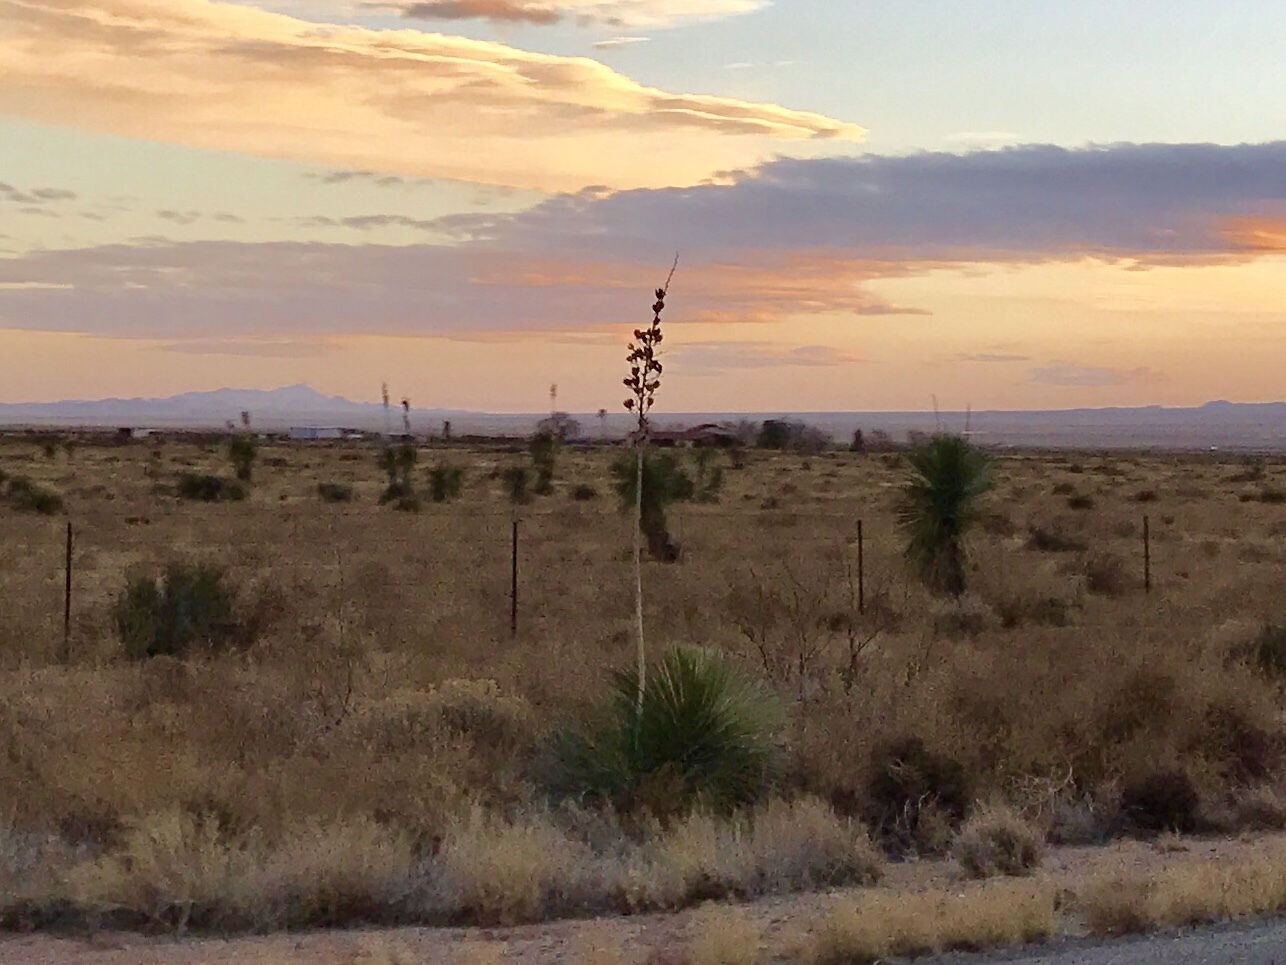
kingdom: Plantae
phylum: Tracheophyta
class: Liliopsida
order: Asparagales
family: Asparagaceae
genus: Yucca
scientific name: Yucca elata
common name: Palmella
